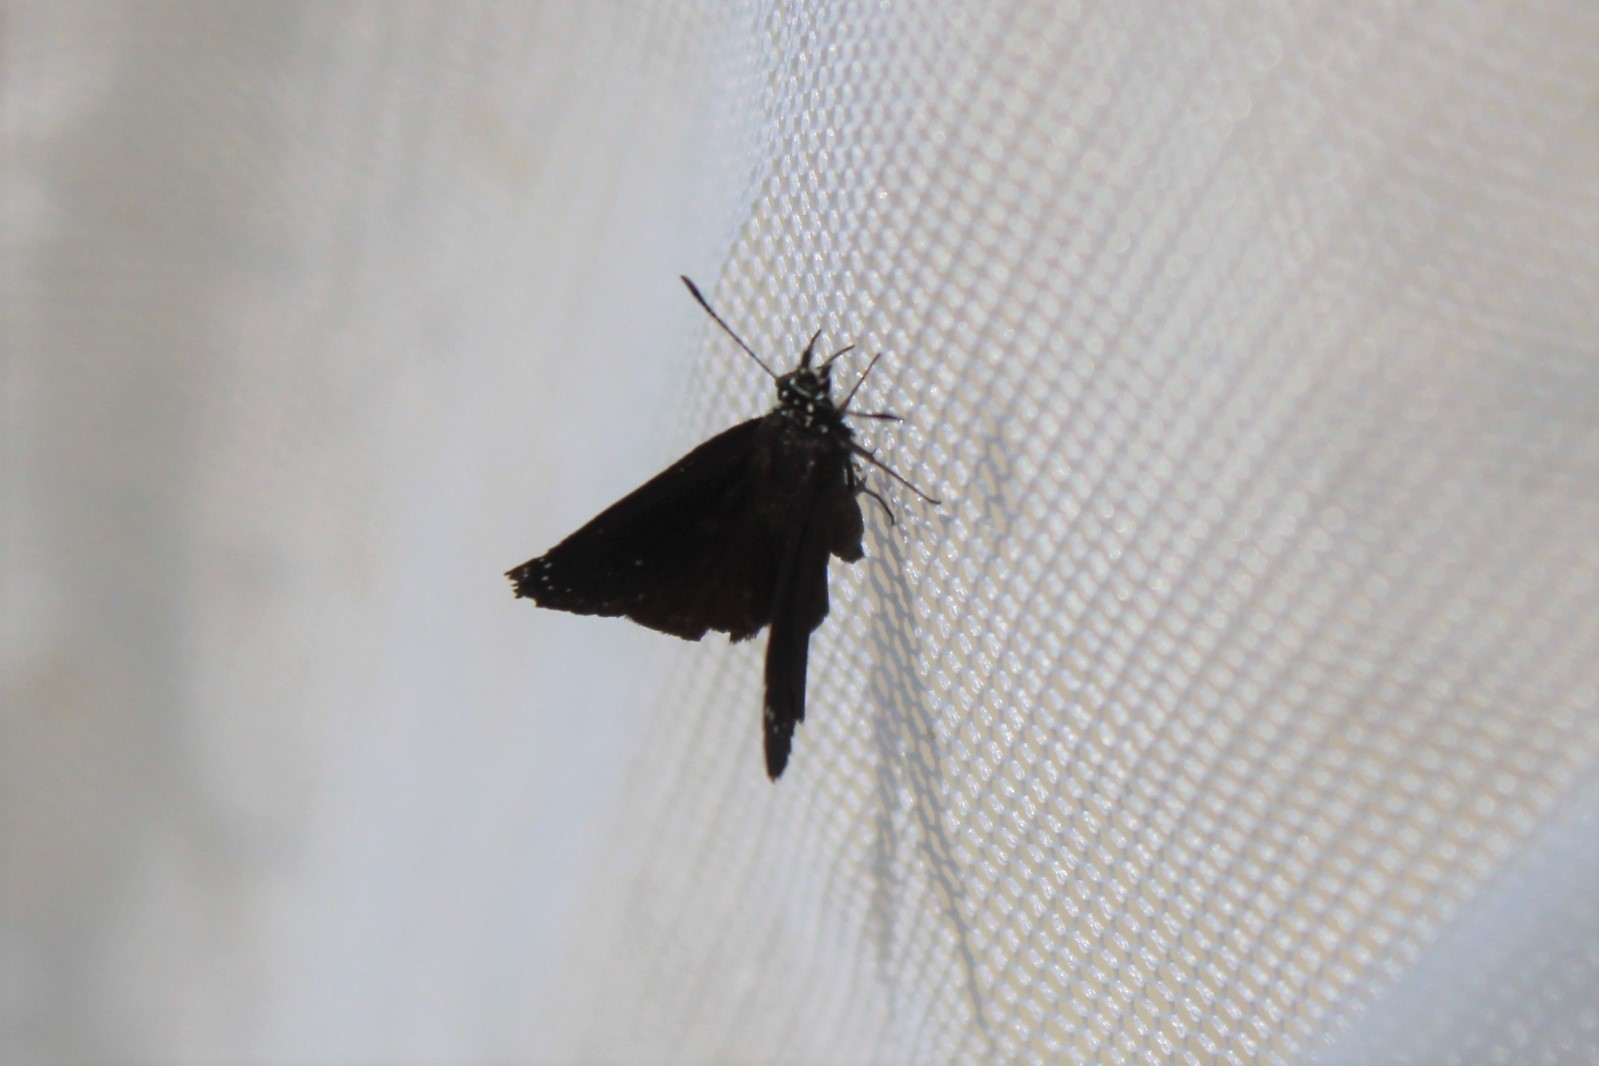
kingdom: Animalia
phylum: Arthropoda
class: Insecta
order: Lepidoptera
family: Hesperiidae
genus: Pholisora
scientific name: Pholisora catullus
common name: Common sootywing
